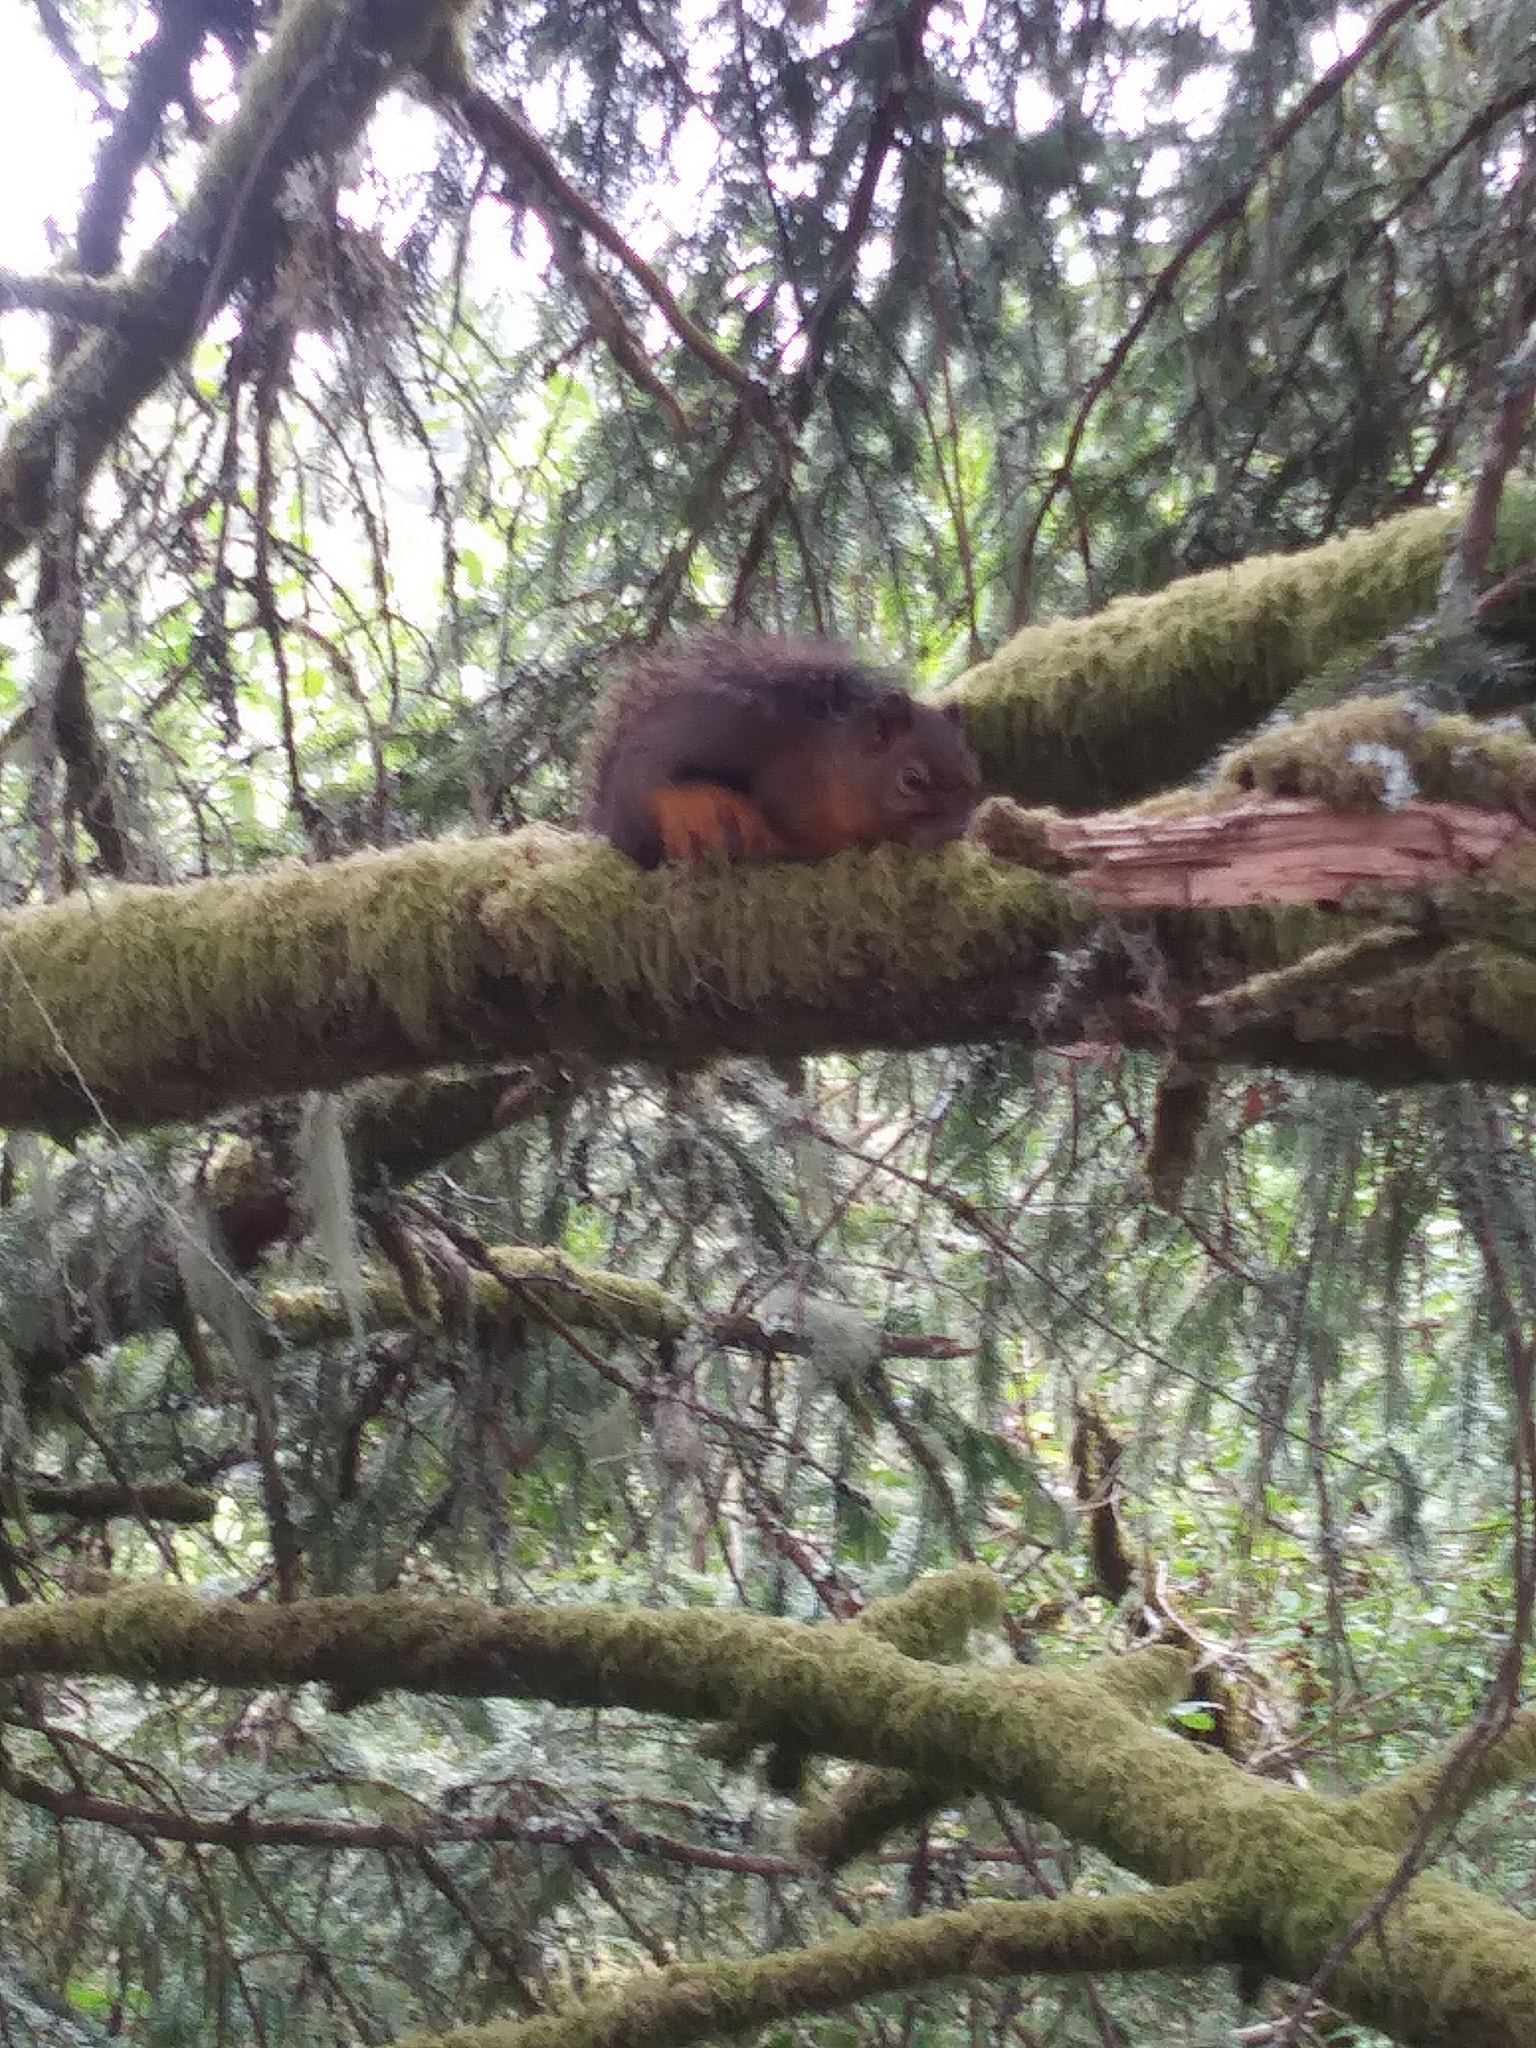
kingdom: Animalia
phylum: Chordata
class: Mammalia
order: Rodentia
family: Sciuridae
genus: Tamiasciurus
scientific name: Tamiasciurus douglasii
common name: Douglas's squirrel
